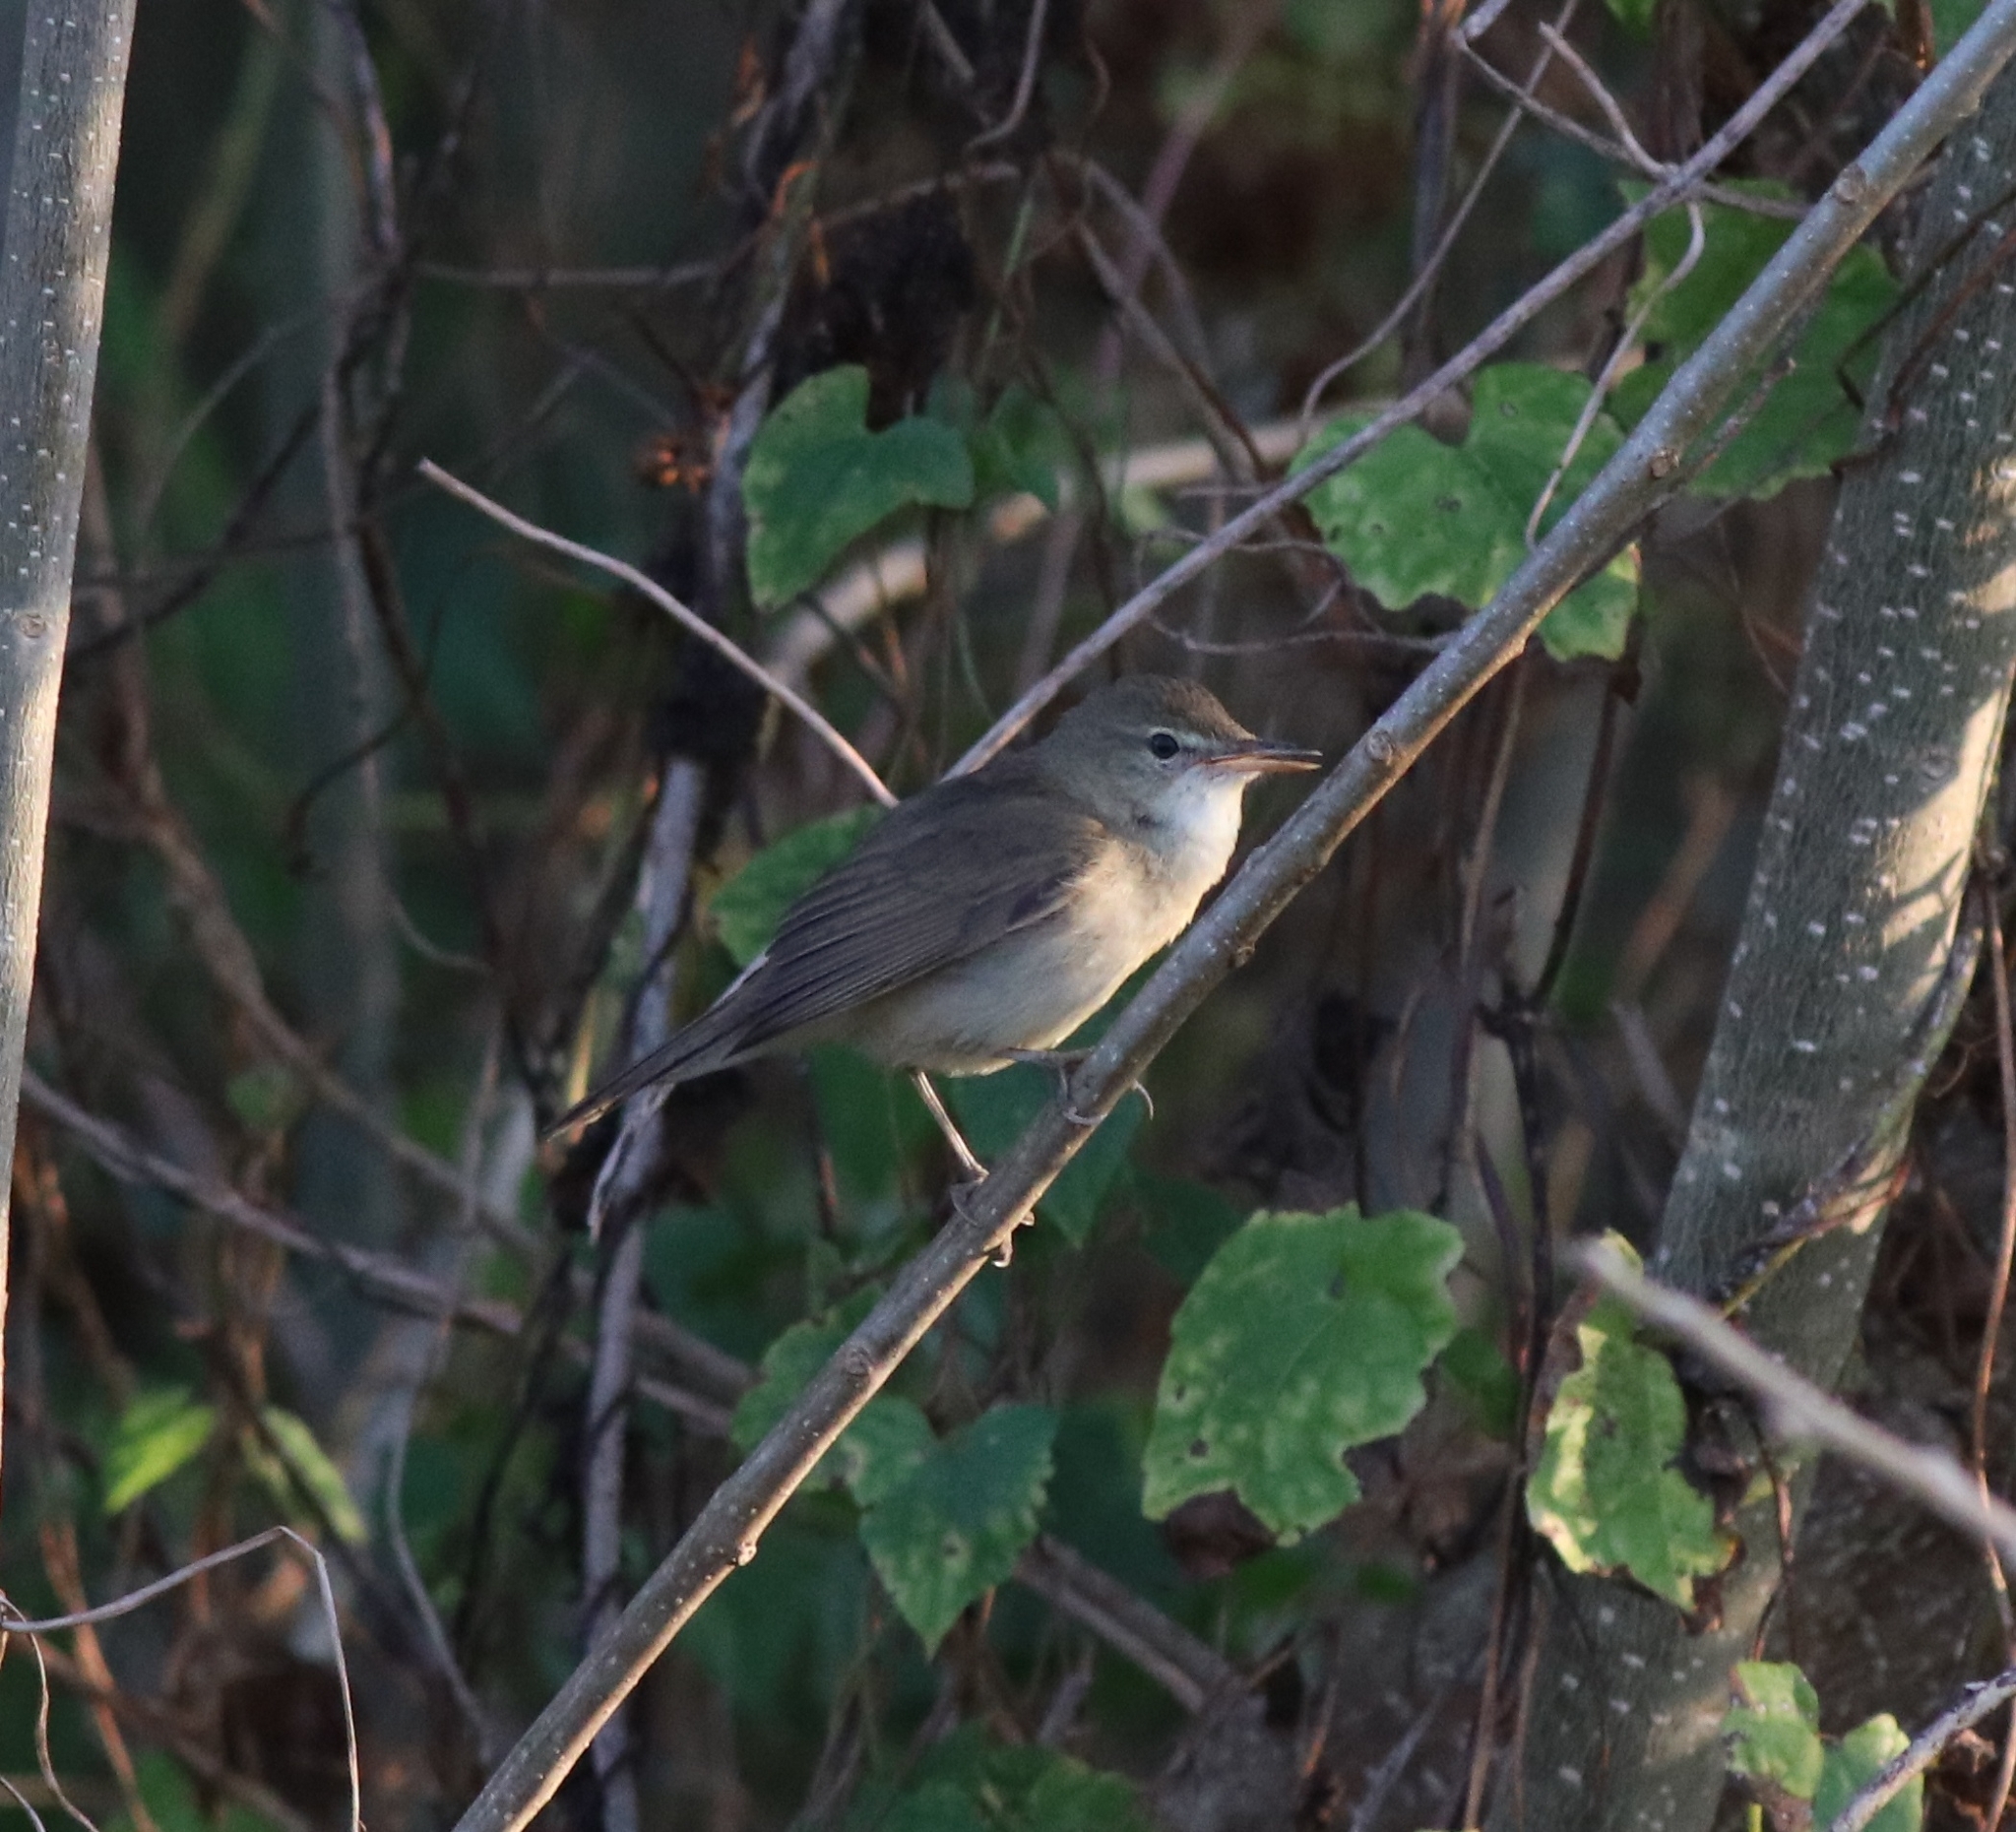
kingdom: Animalia
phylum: Chordata
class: Aves
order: Passeriformes
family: Acrocephalidae
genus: Acrocephalus
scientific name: Acrocephalus dumetorum
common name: Blyth's reed warbler
